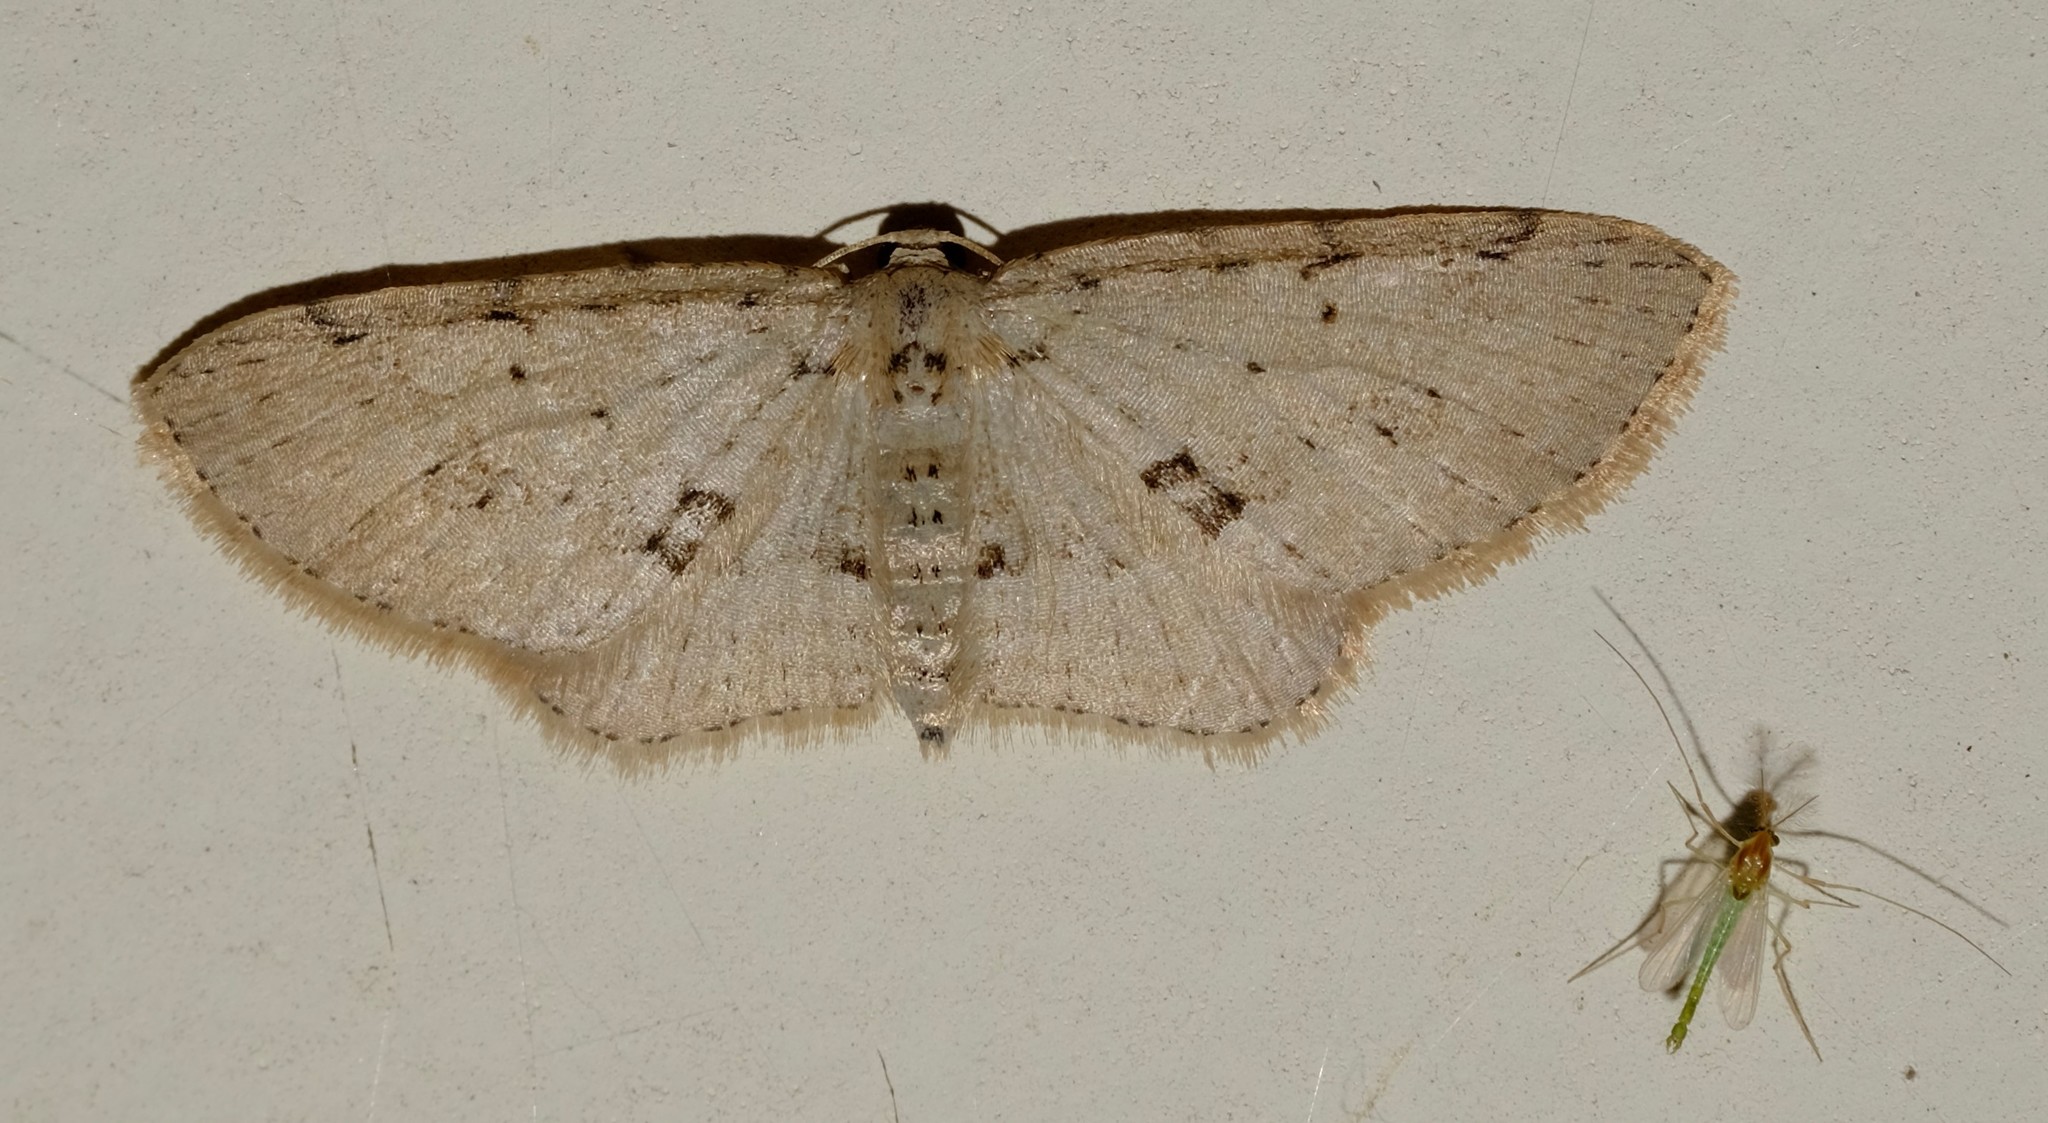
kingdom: Animalia
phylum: Arthropoda
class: Insecta
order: Lepidoptera
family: Geometridae
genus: Poecilasthena
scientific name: Poecilasthena scoliota
